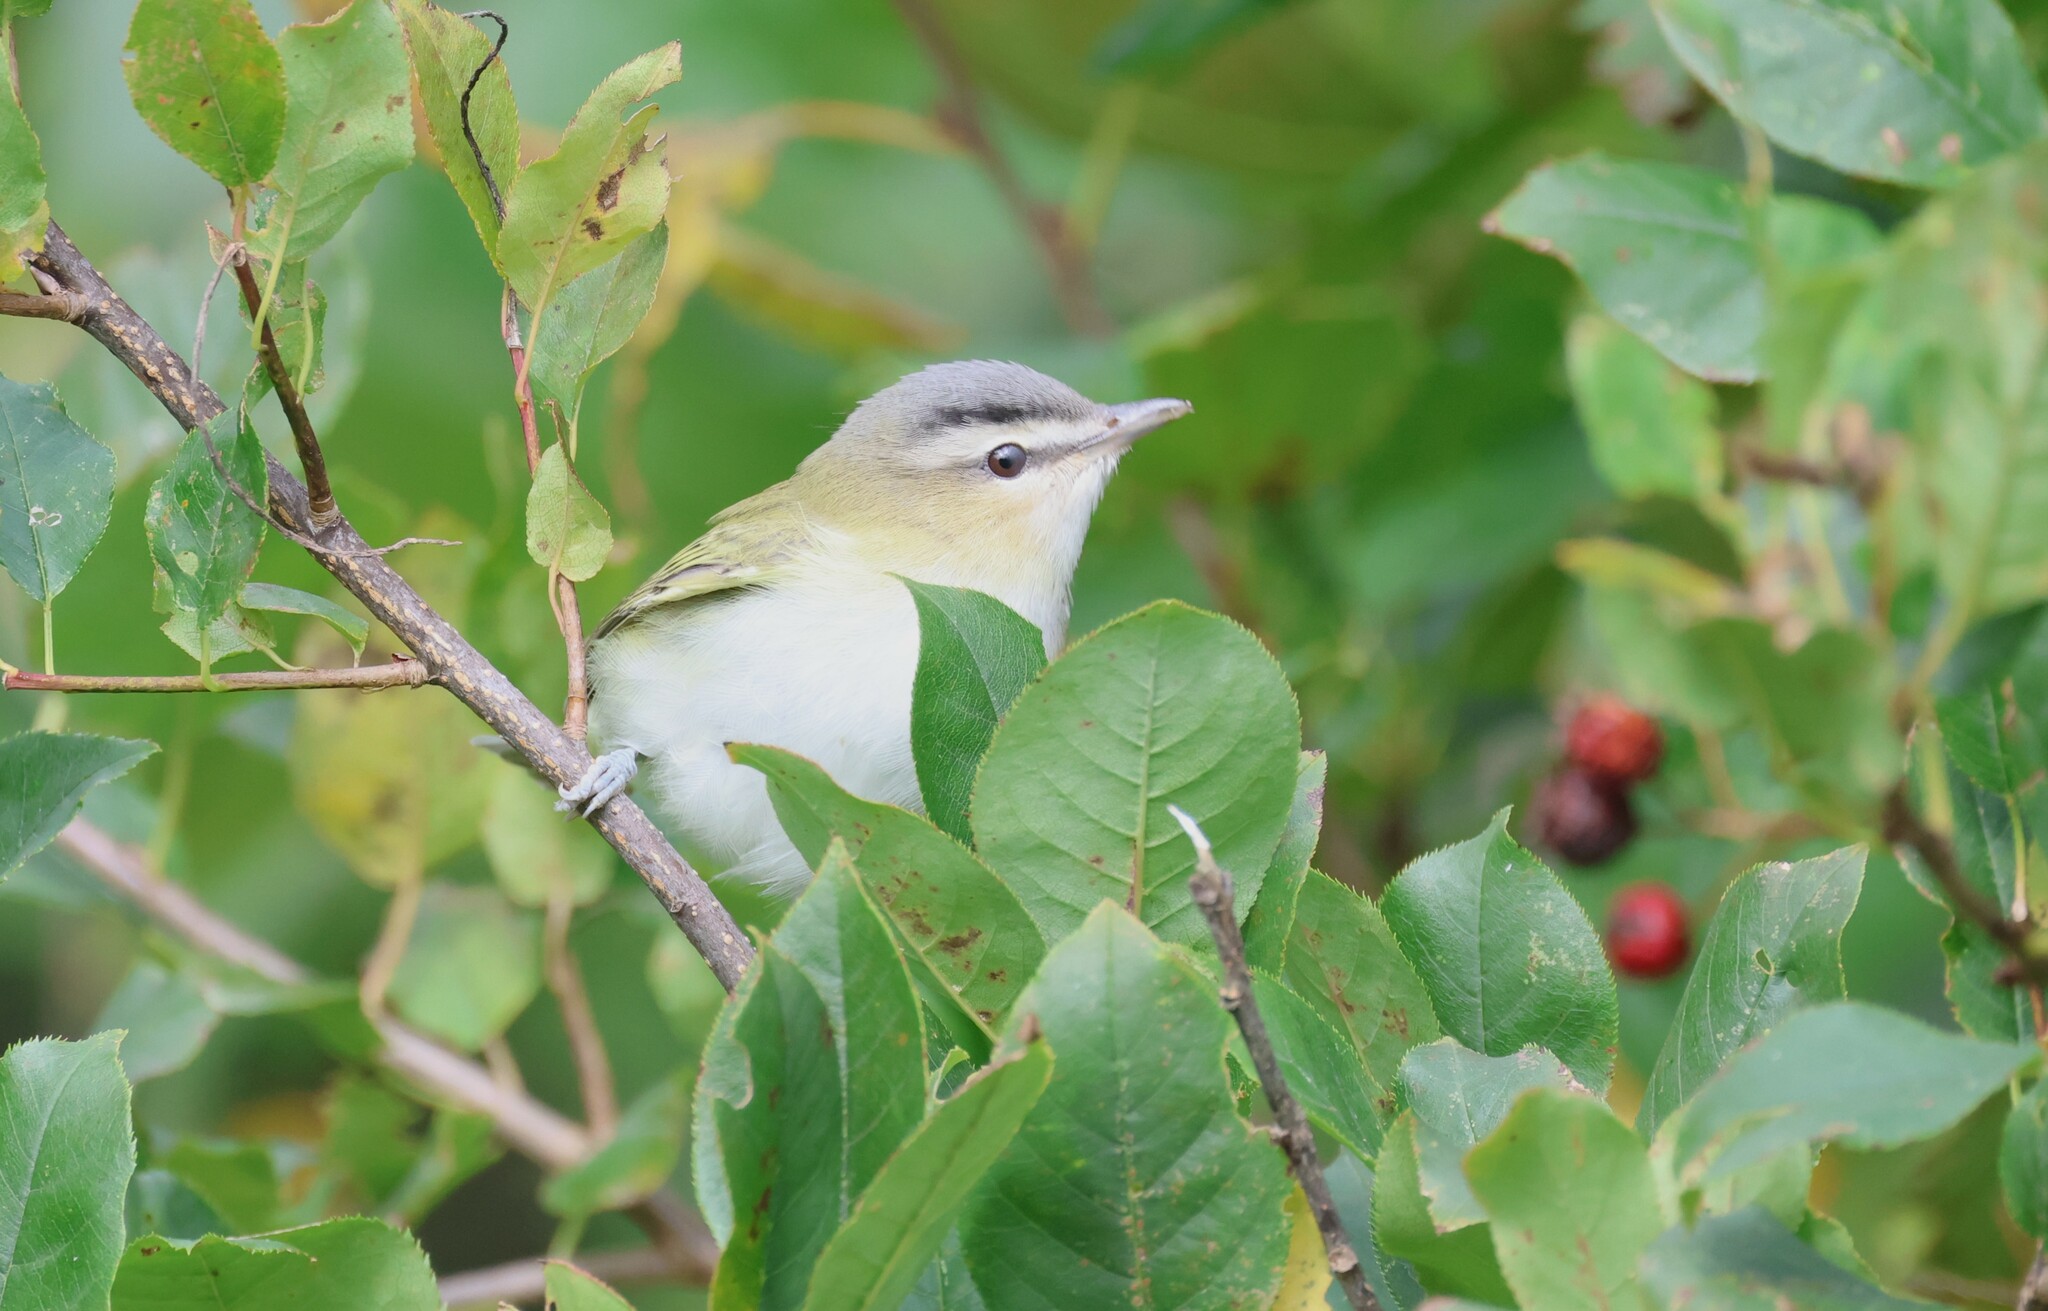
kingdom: Animalia
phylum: Chordata
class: Aves
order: Passeriformes
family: Vireonidae
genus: Vireo
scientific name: Vireo olivaceus
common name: Red-eyed vireo
